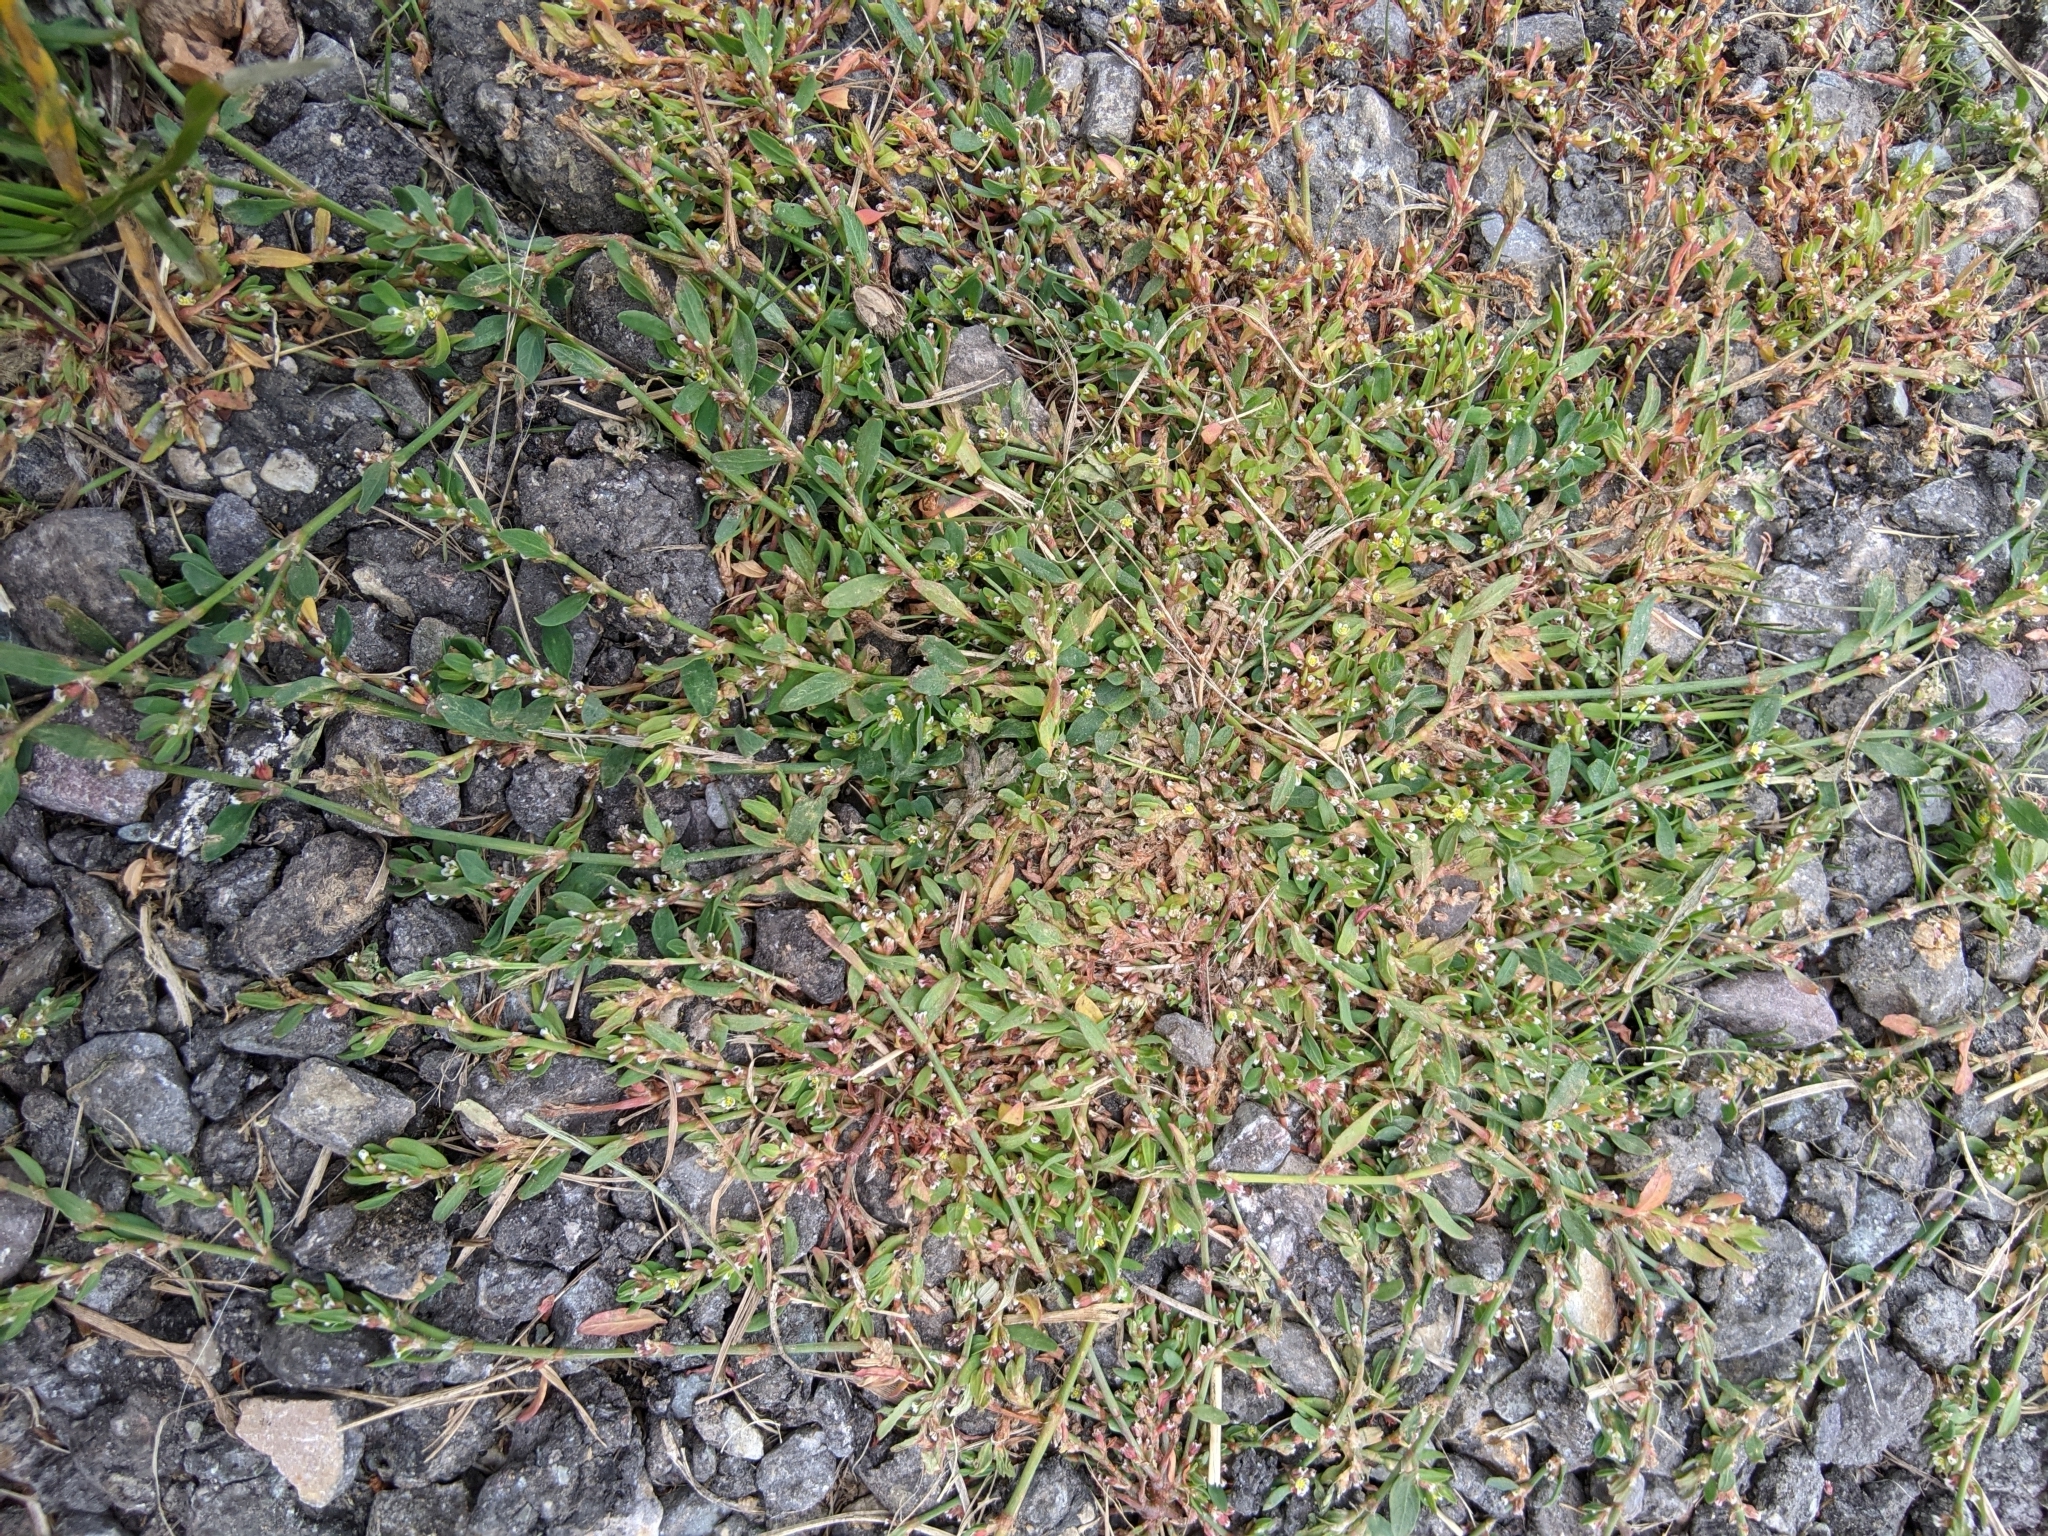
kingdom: Plantae
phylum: Tracheophyta
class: Magnoliopsida
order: Caryophyllales
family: Polygonaceae
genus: Polygonum
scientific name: Polygonum aviculare
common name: Prostrate knotweed
